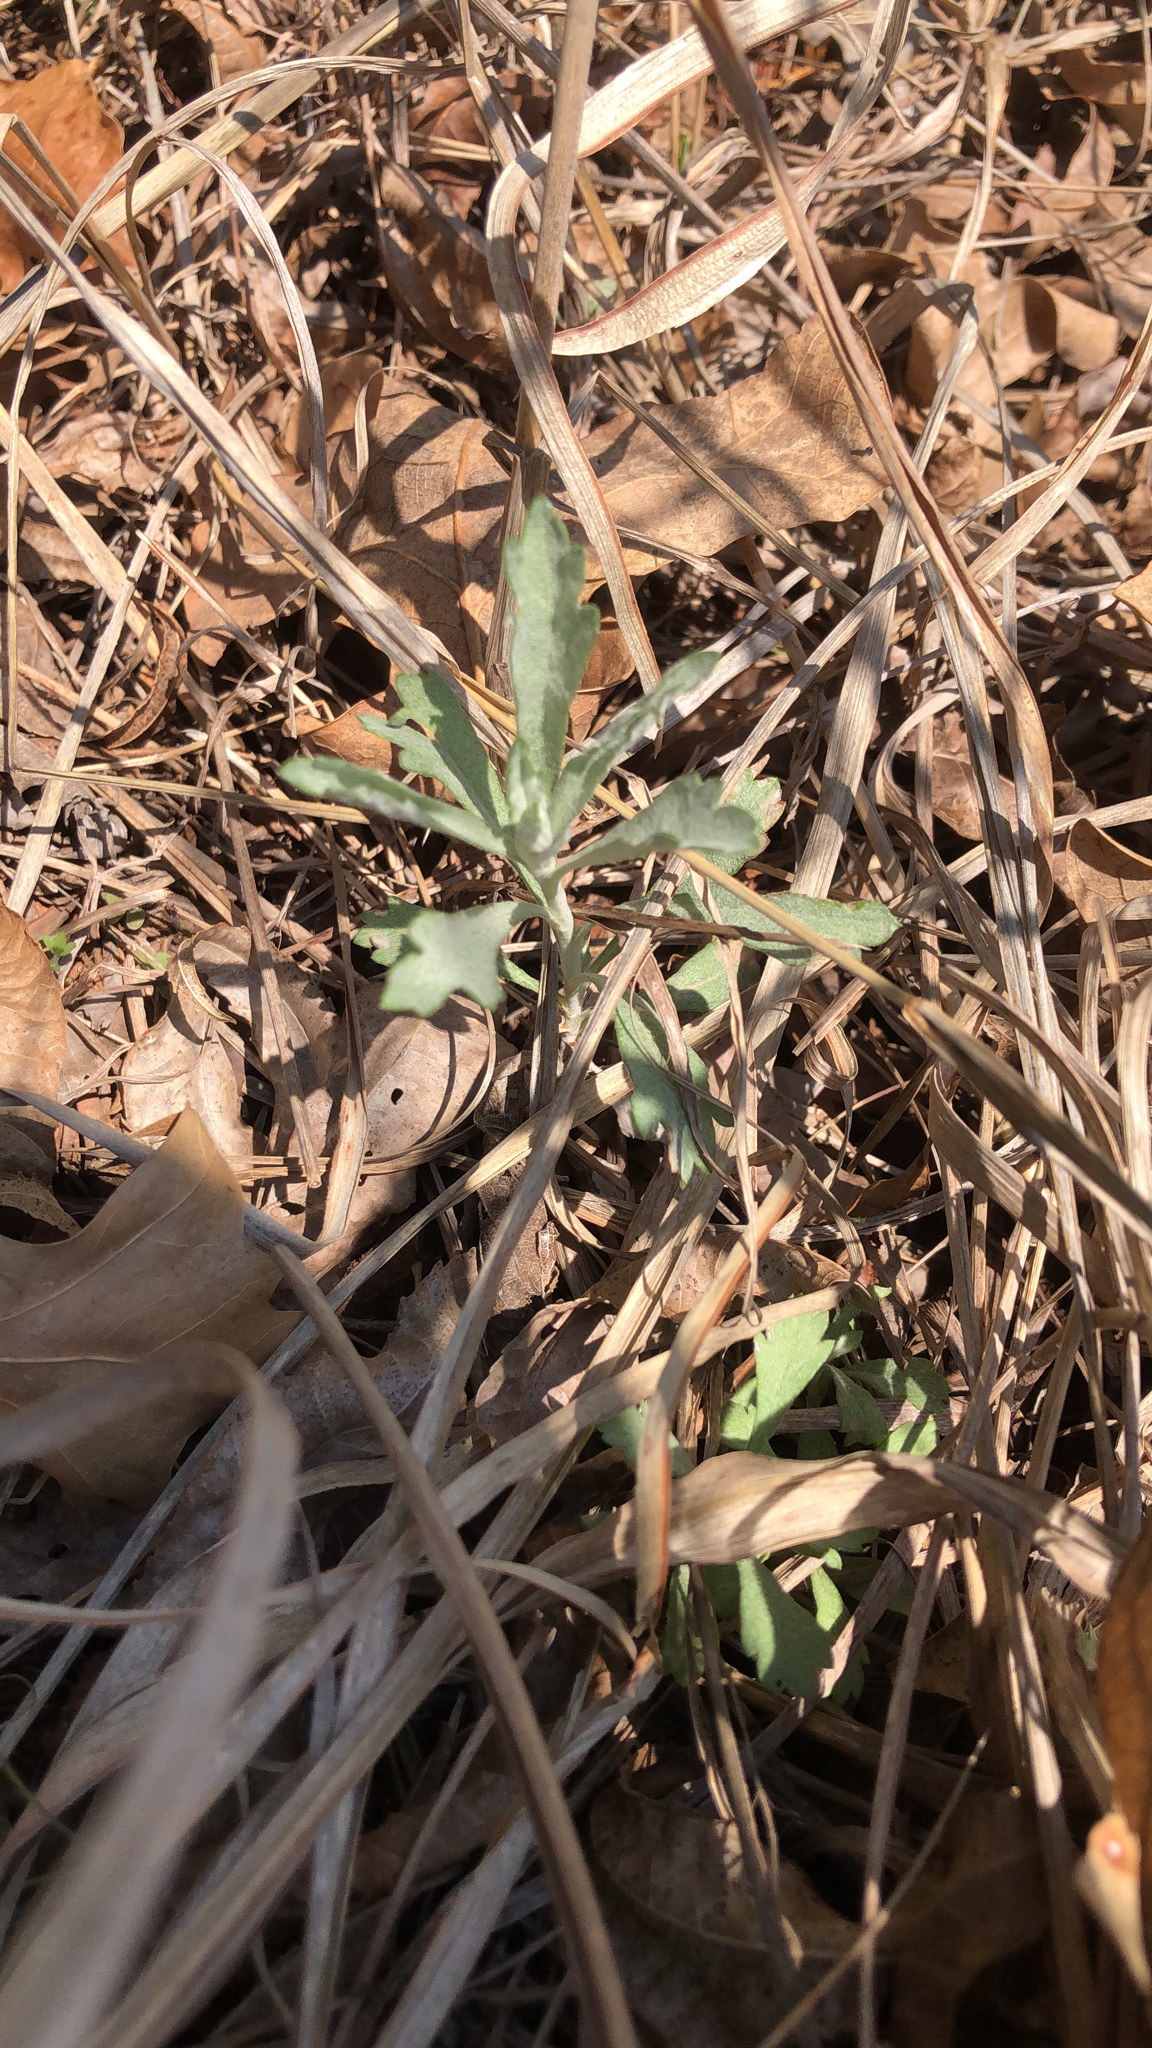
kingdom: Plantae
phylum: Tracheophyta
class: Magnoliopsida
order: Asterales
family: Asteraceae
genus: Artemisia
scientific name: Artemisia ludoviciana
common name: Western mugwort
